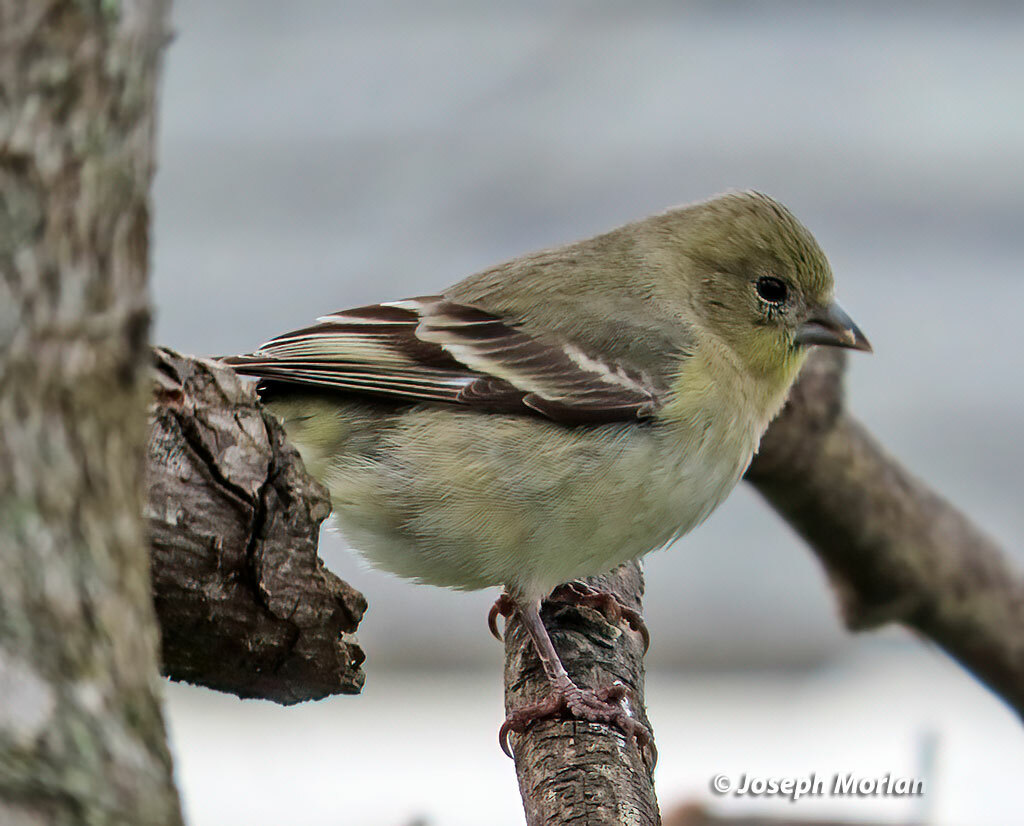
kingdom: Animalia
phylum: Chordata
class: Aves
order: Passeriformes
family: Fringillidae
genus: Spinus
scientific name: Spinus psaltria
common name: Lesser goldfinch
